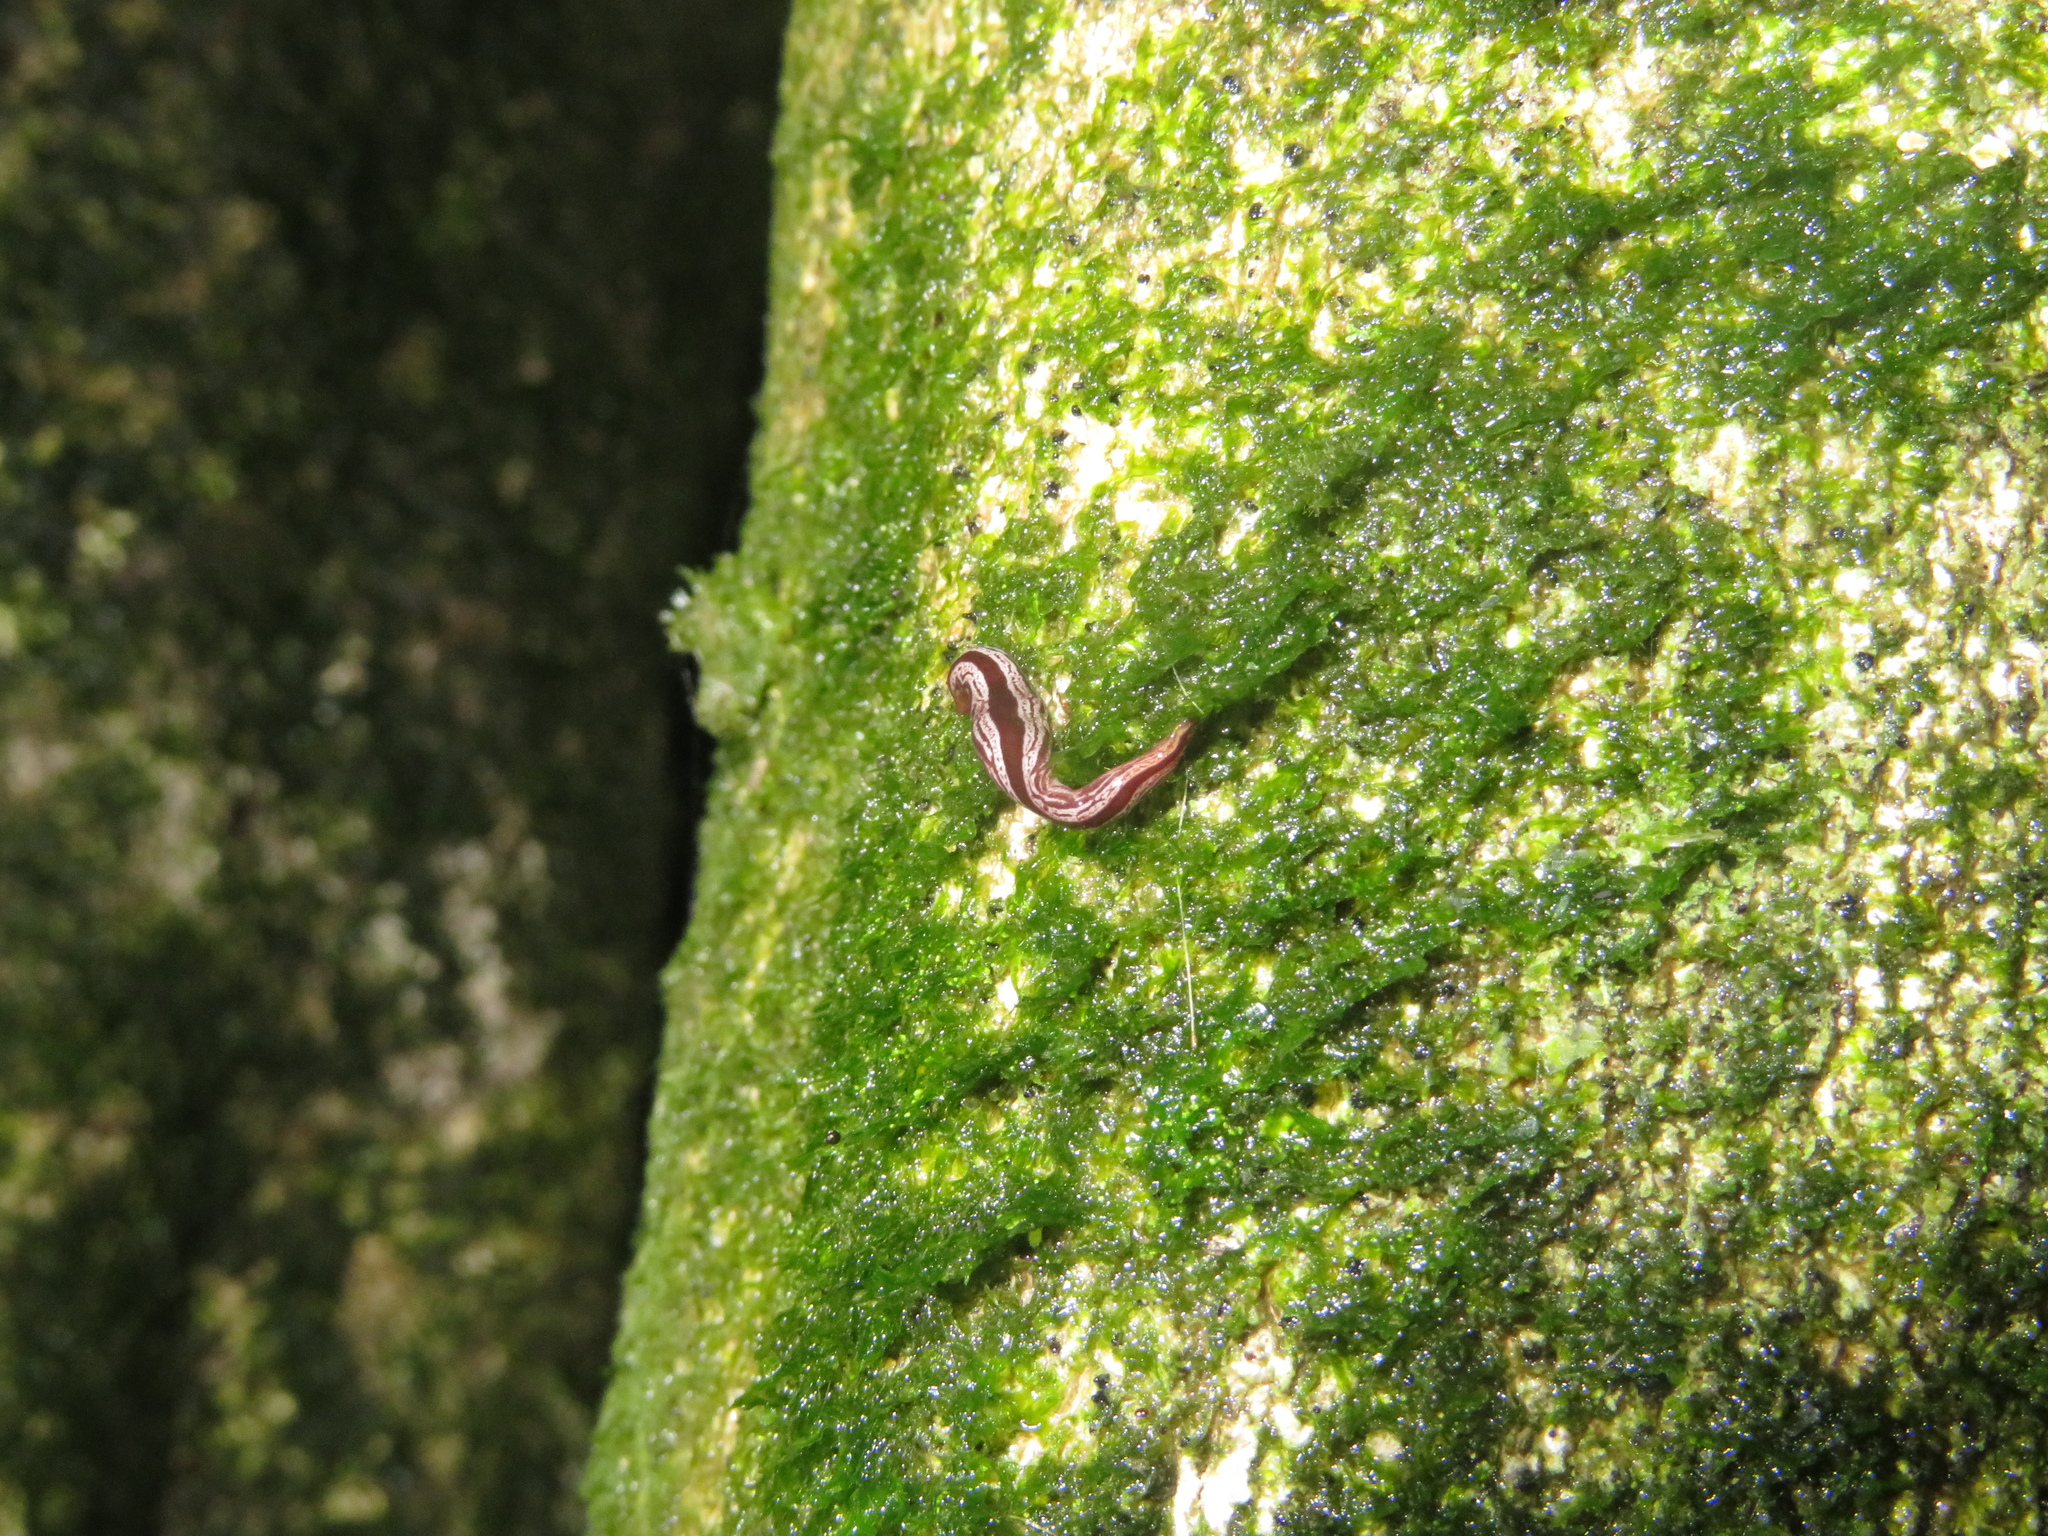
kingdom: Animalia
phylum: Platyhelminthes
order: Tricladida
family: Geoplanidae
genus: Artioposthia
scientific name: Artioposthia exulans
